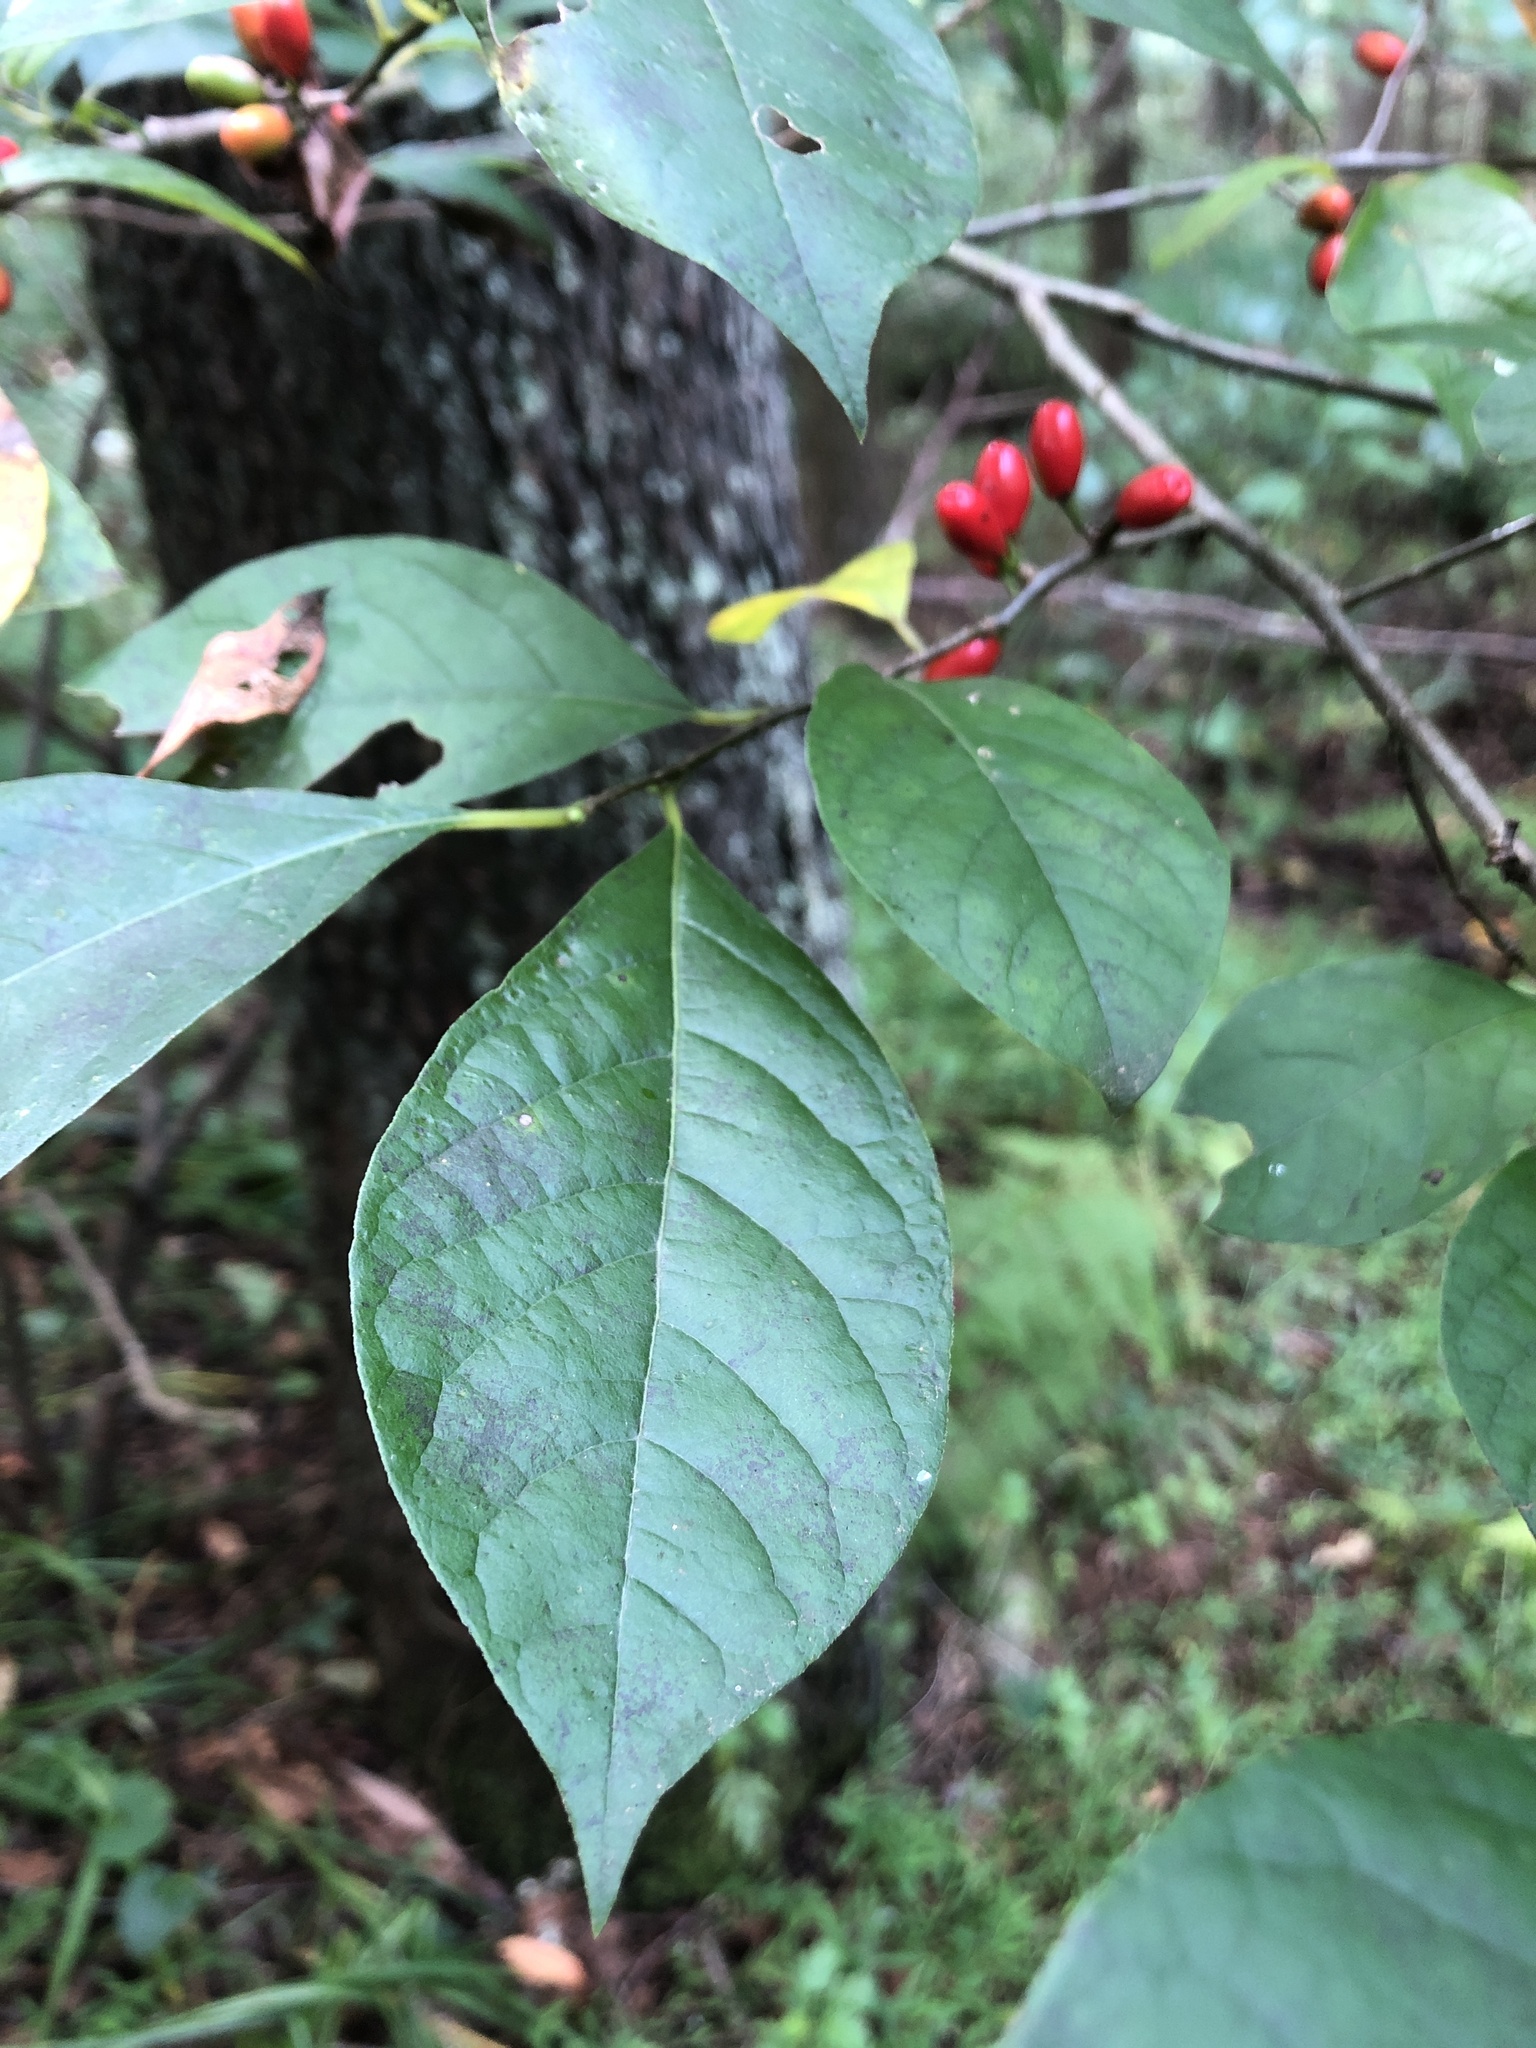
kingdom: Plantae
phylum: Tracheophyta
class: Magnoliopsida
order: Laurales
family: Lauraceae
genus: Lindera
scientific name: Lindera benzoin
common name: Spicebush
